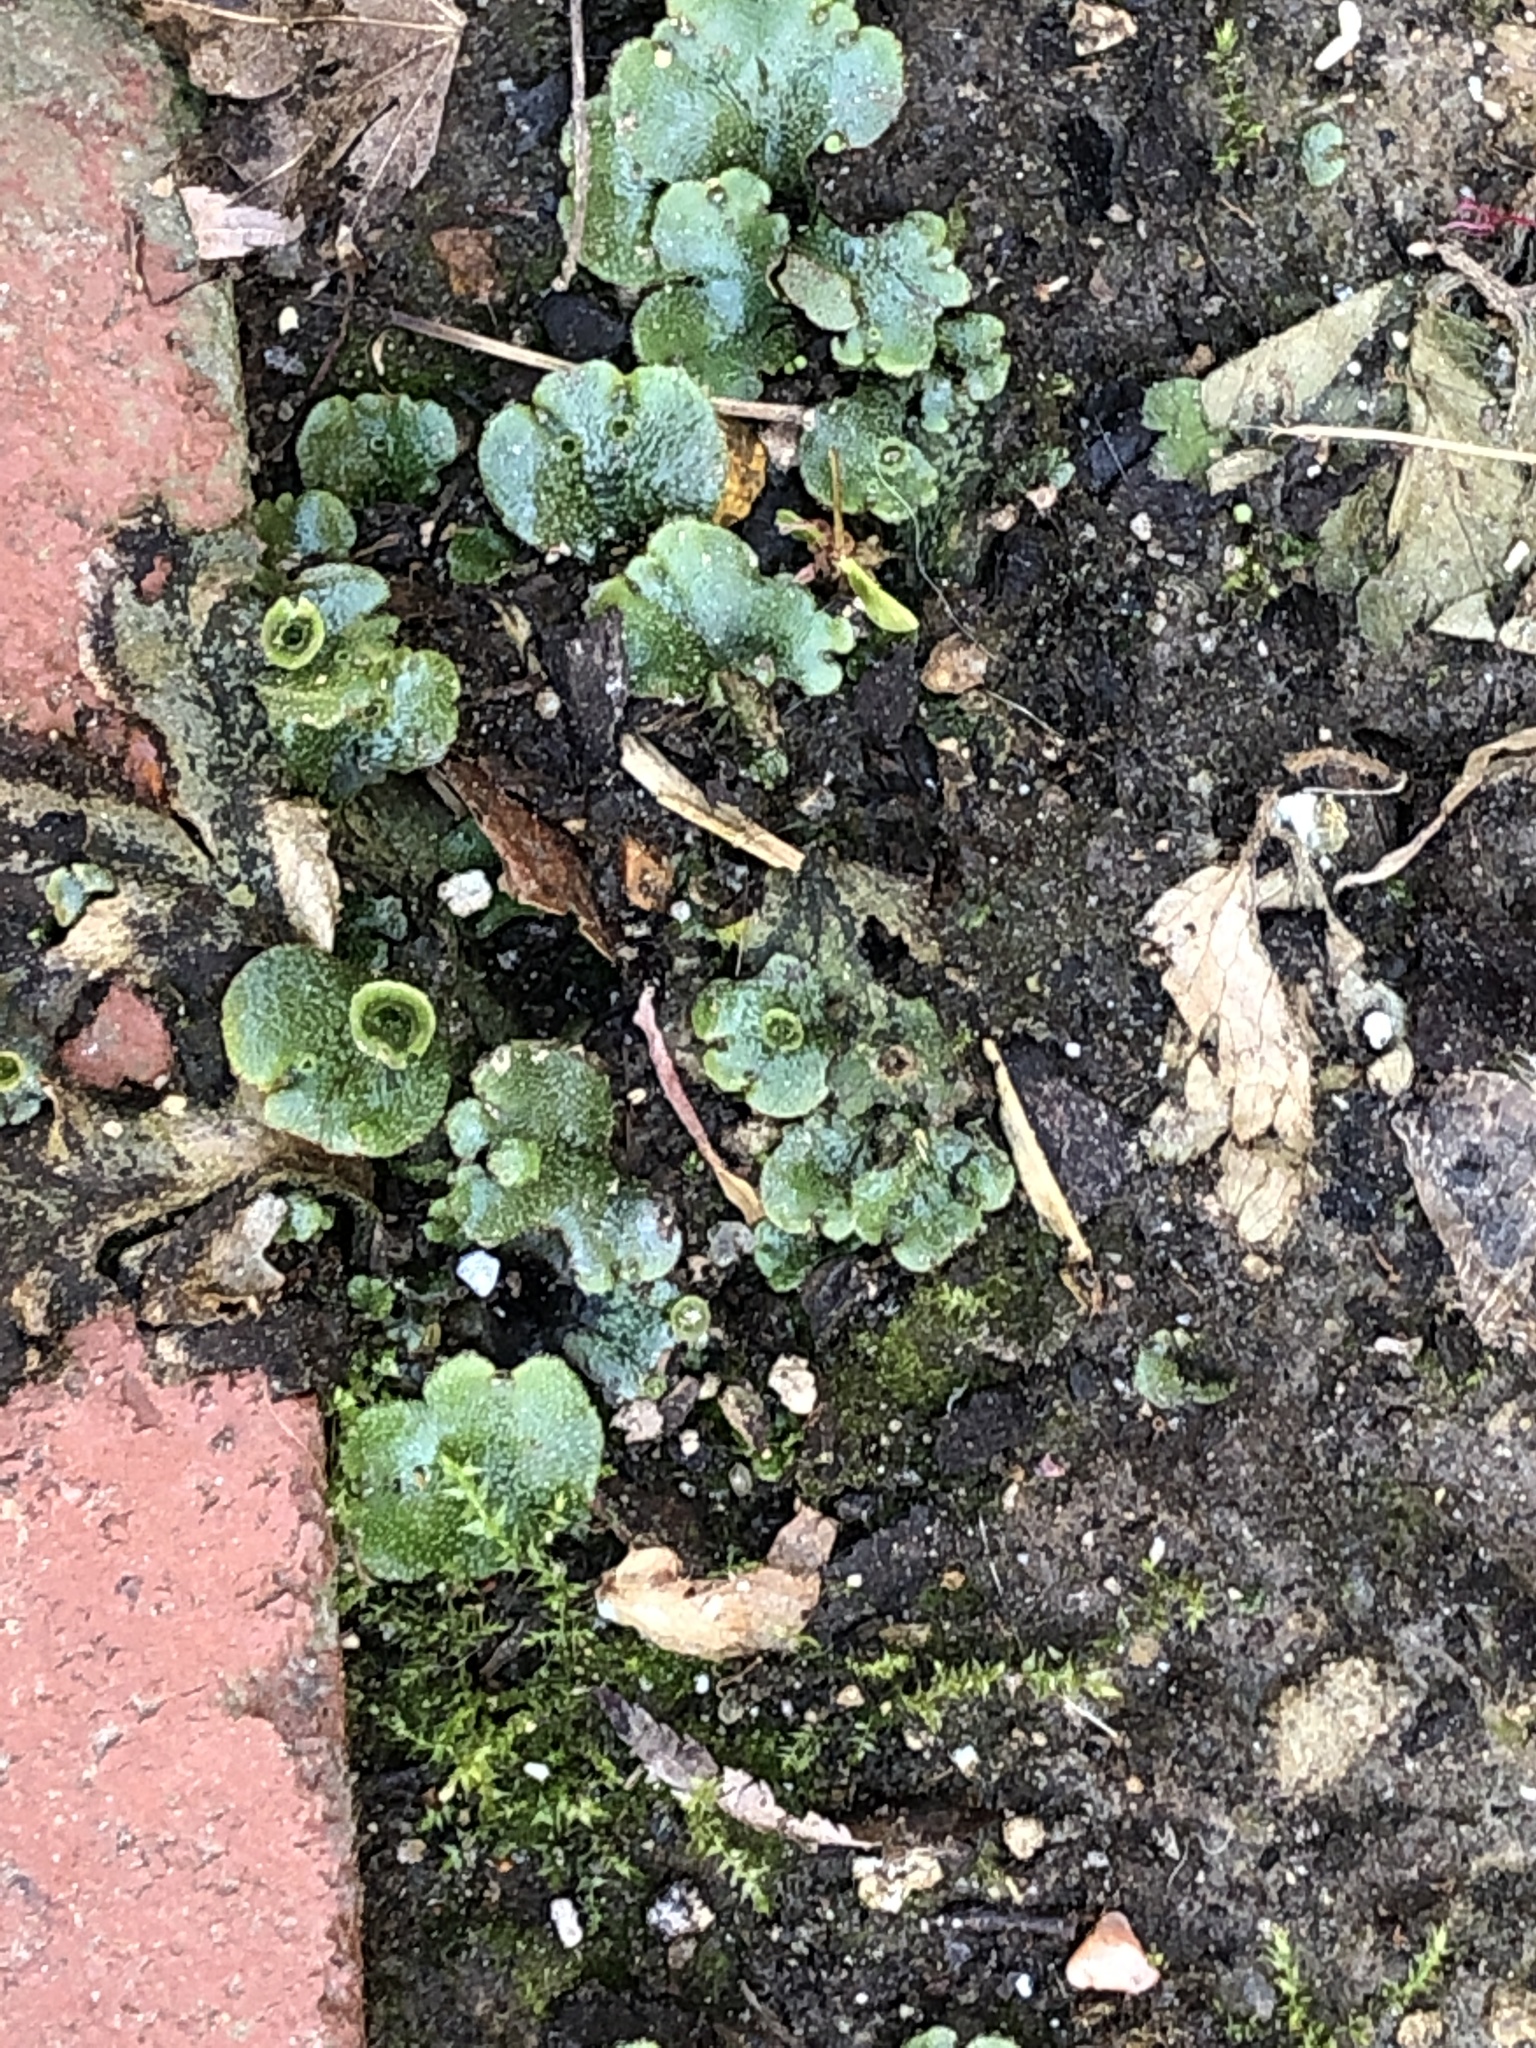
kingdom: Plantae
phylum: Marchantiophyta
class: Marchantiopsida
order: Marchantiales
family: Marchantiaceae
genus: Marchantia
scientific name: Marchantia polymorpha
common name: Common liverwort
